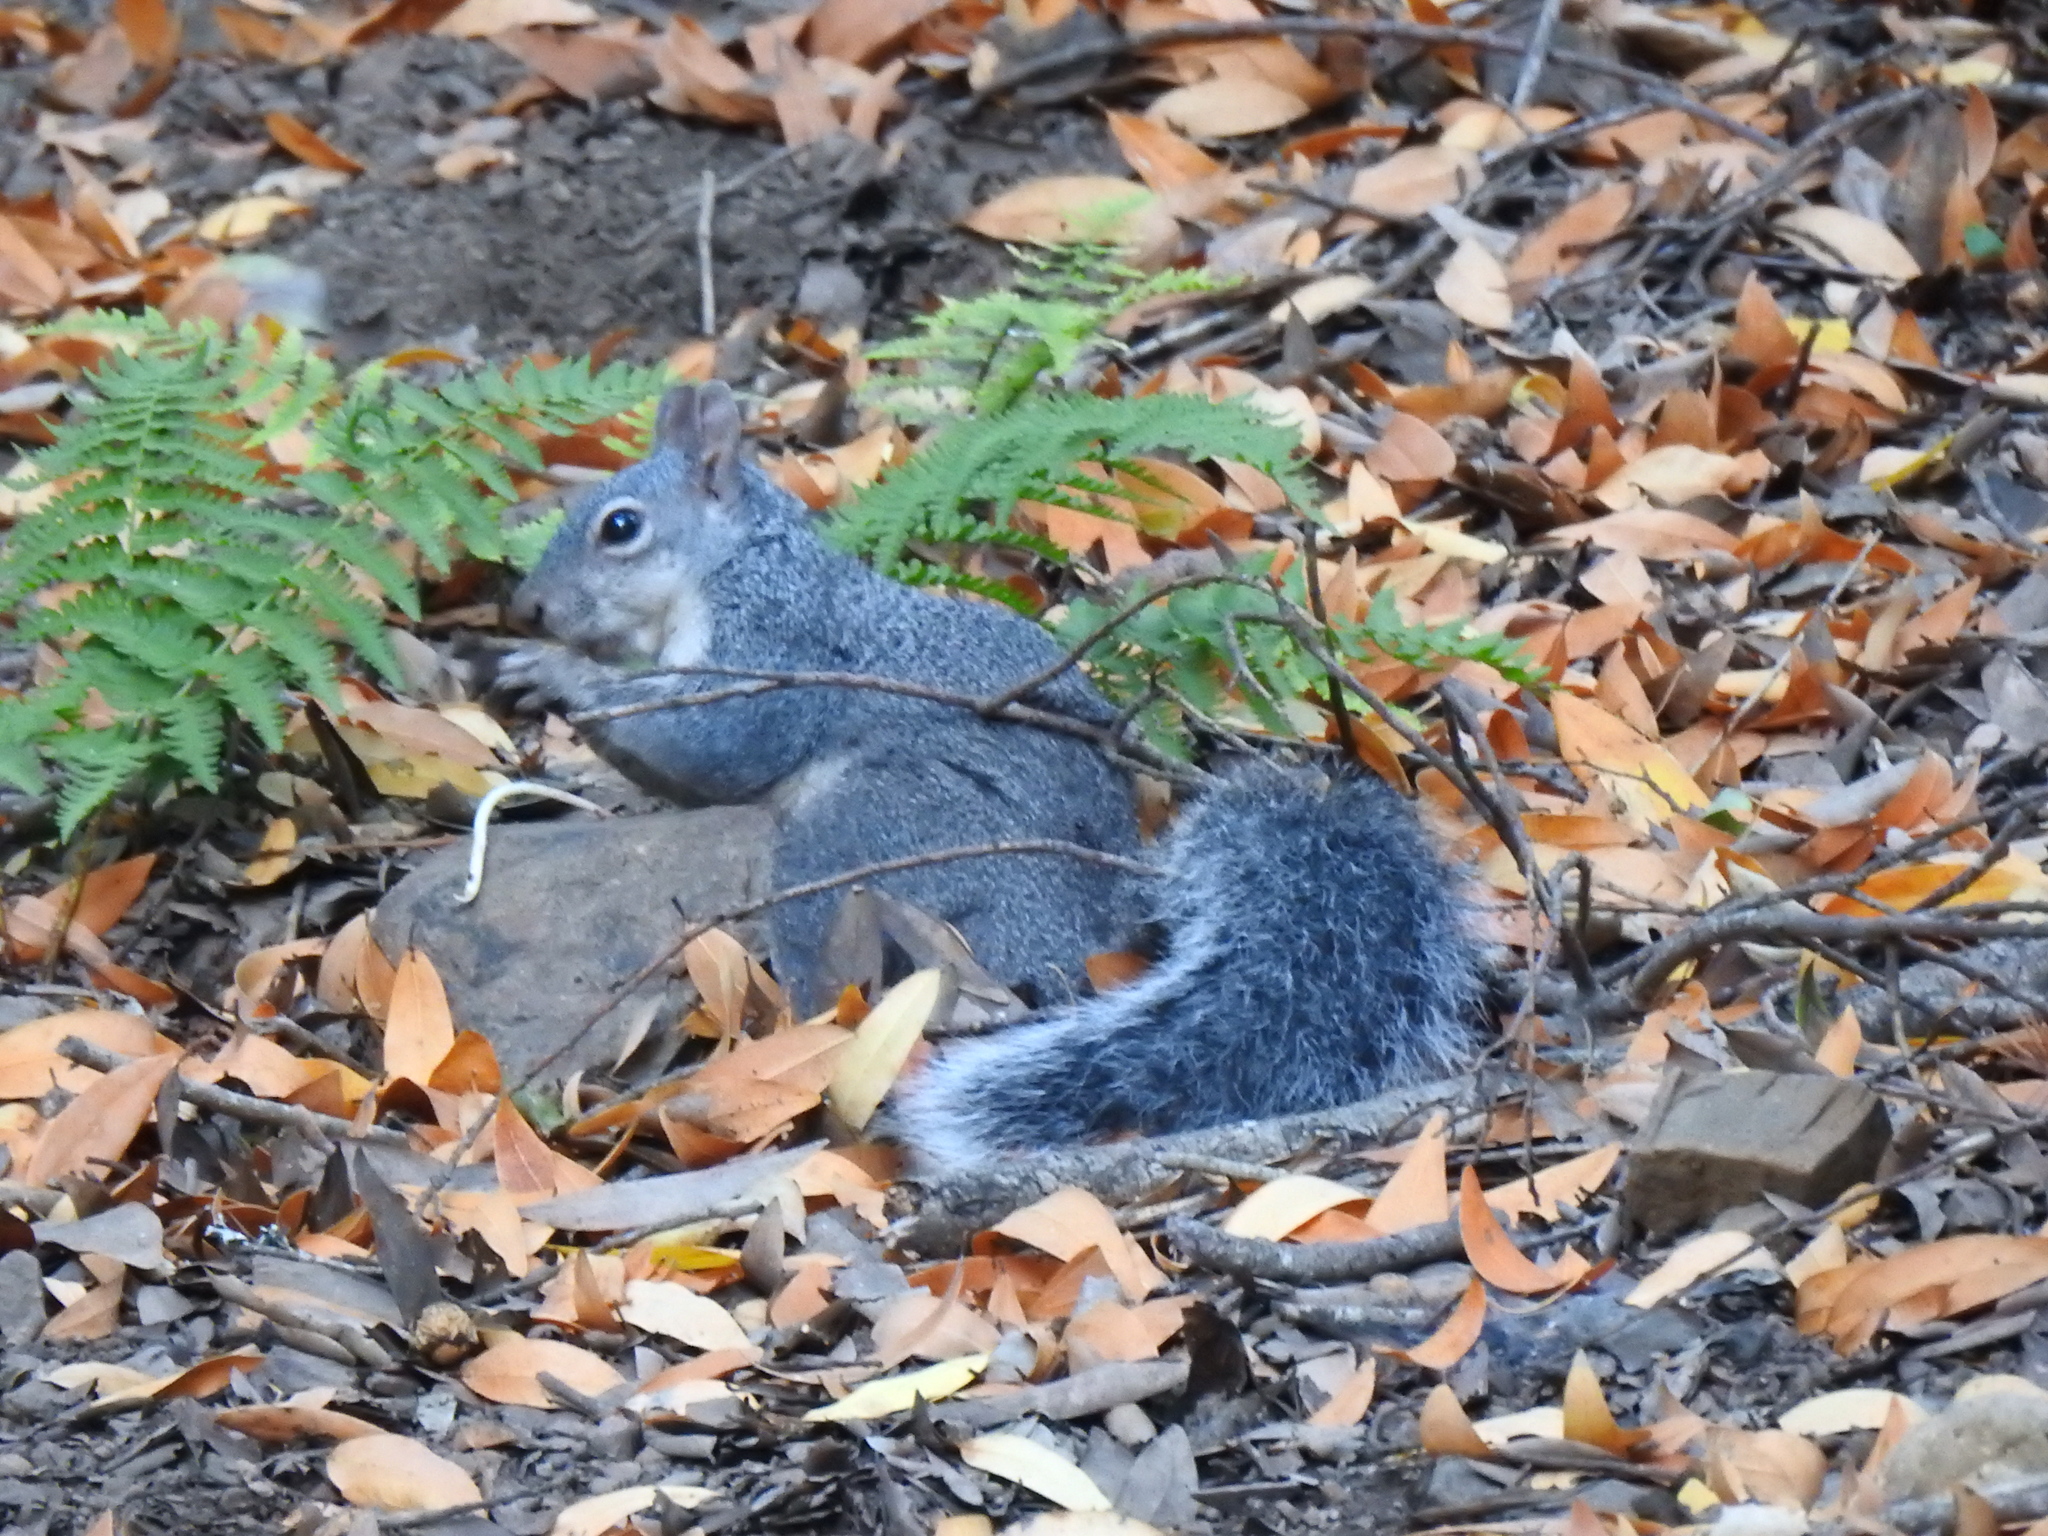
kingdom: Animalia
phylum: Chordata
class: Mammalia
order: Rodentia
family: Sciuridae
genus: Sciurus
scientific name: Sciurus griseus
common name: Western gray squirrel
